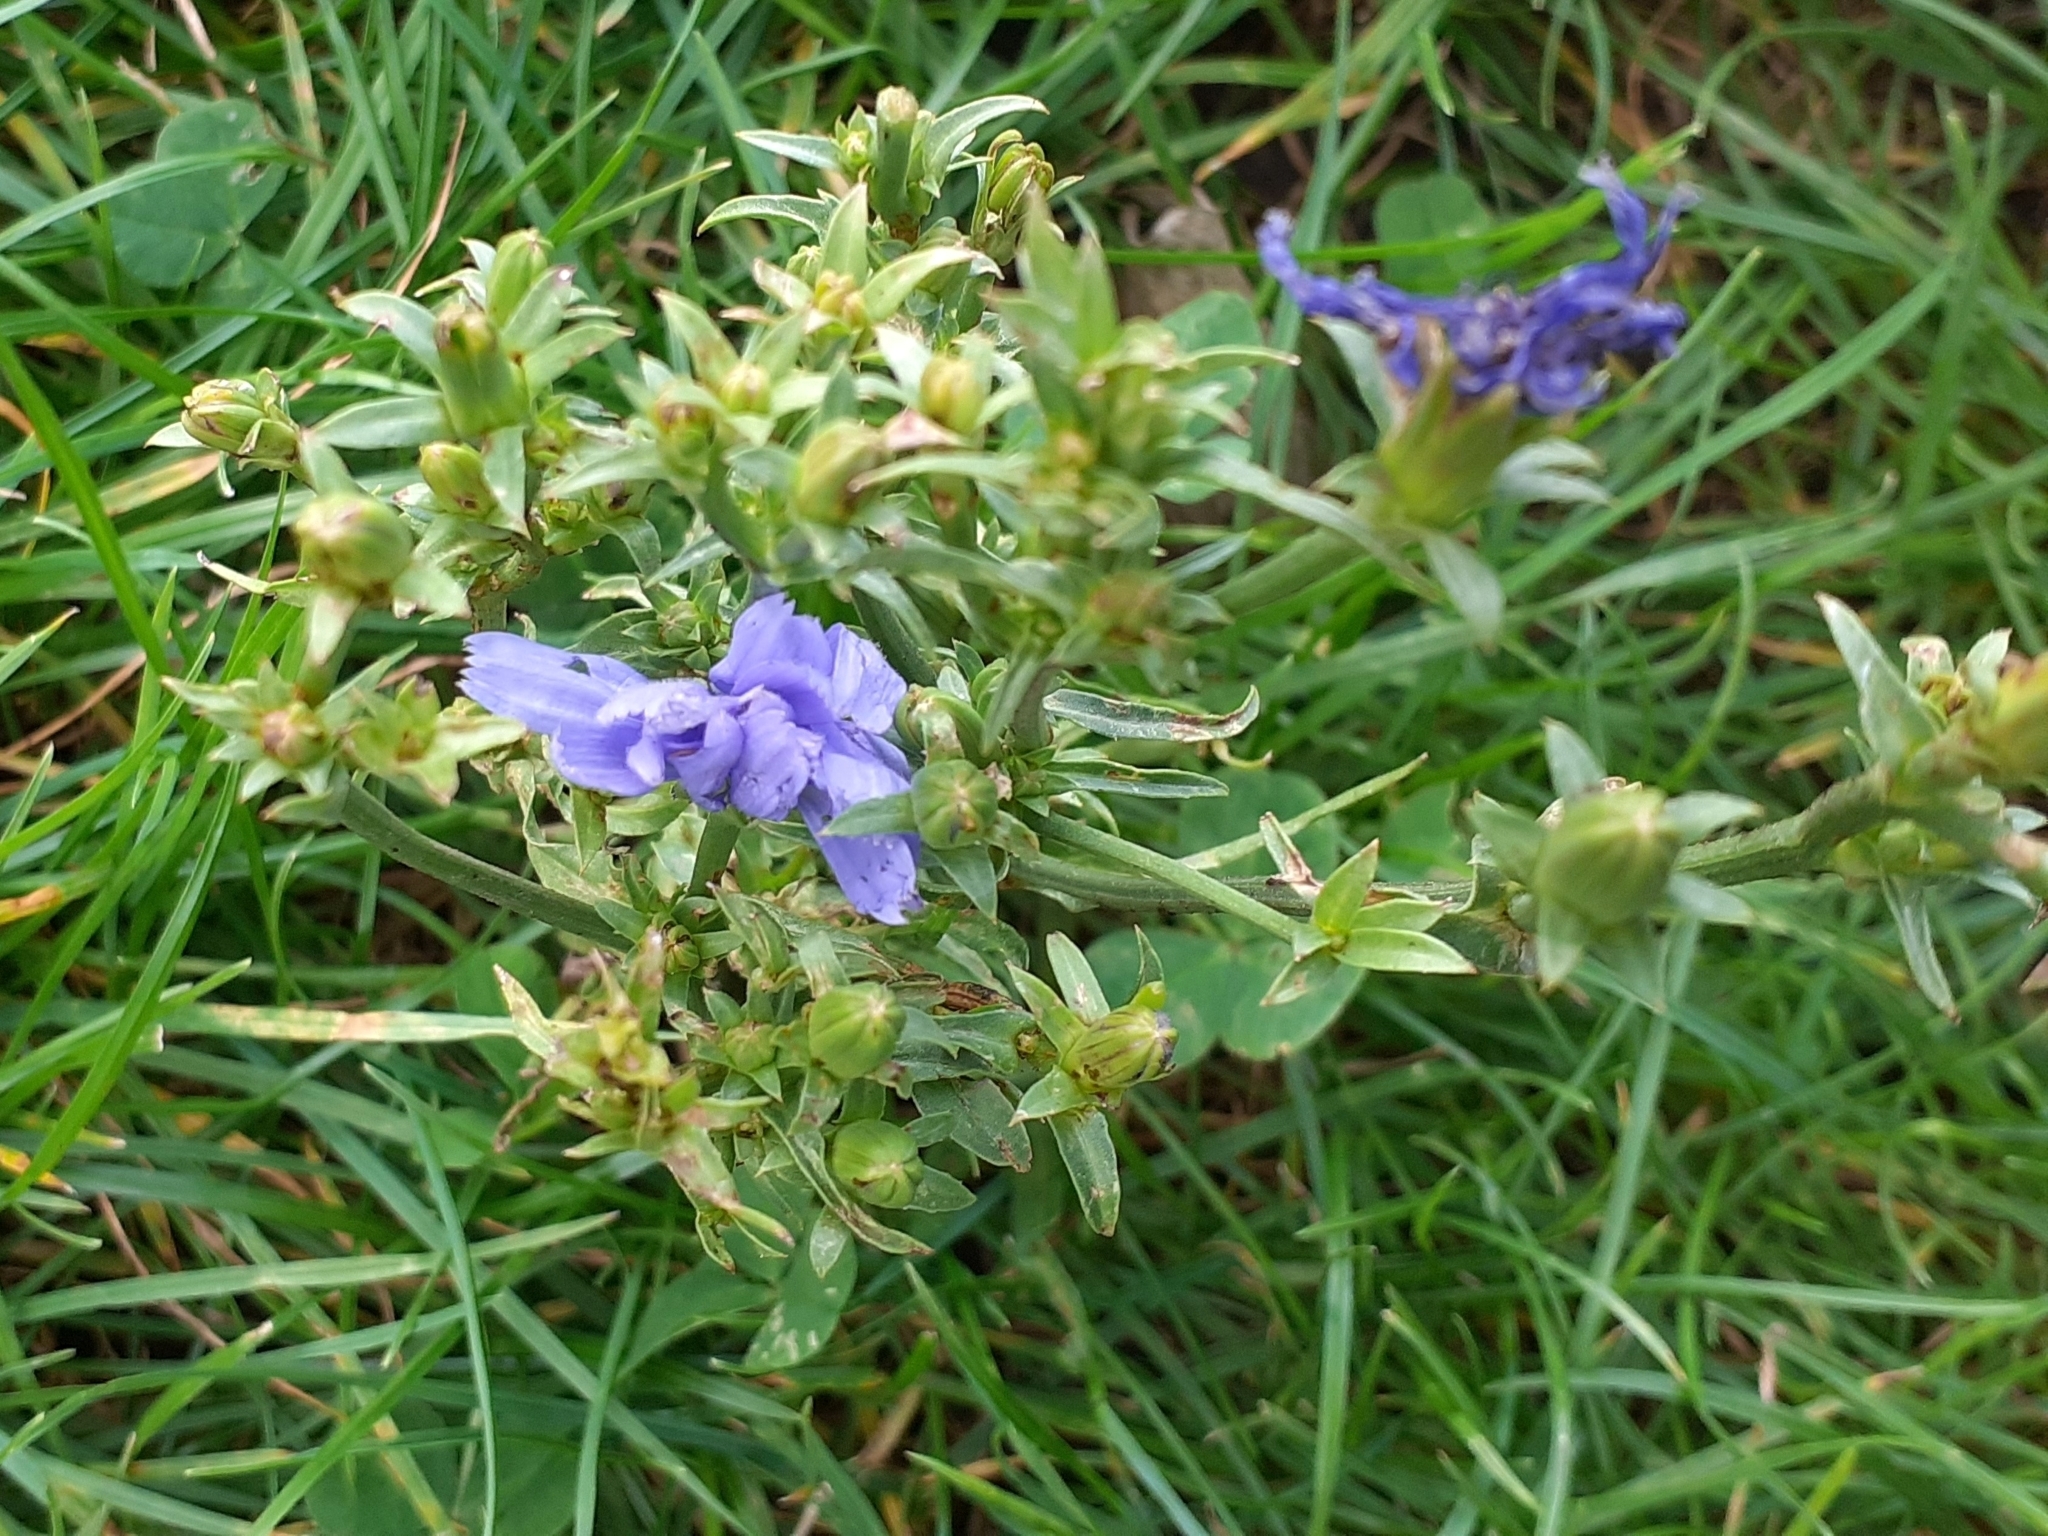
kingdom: Plantae
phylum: Tracheophyta
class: Magnoliopsida
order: Asterales
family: Asteraceae
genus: Cichorium
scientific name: Cichorium intybus
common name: Chicory
